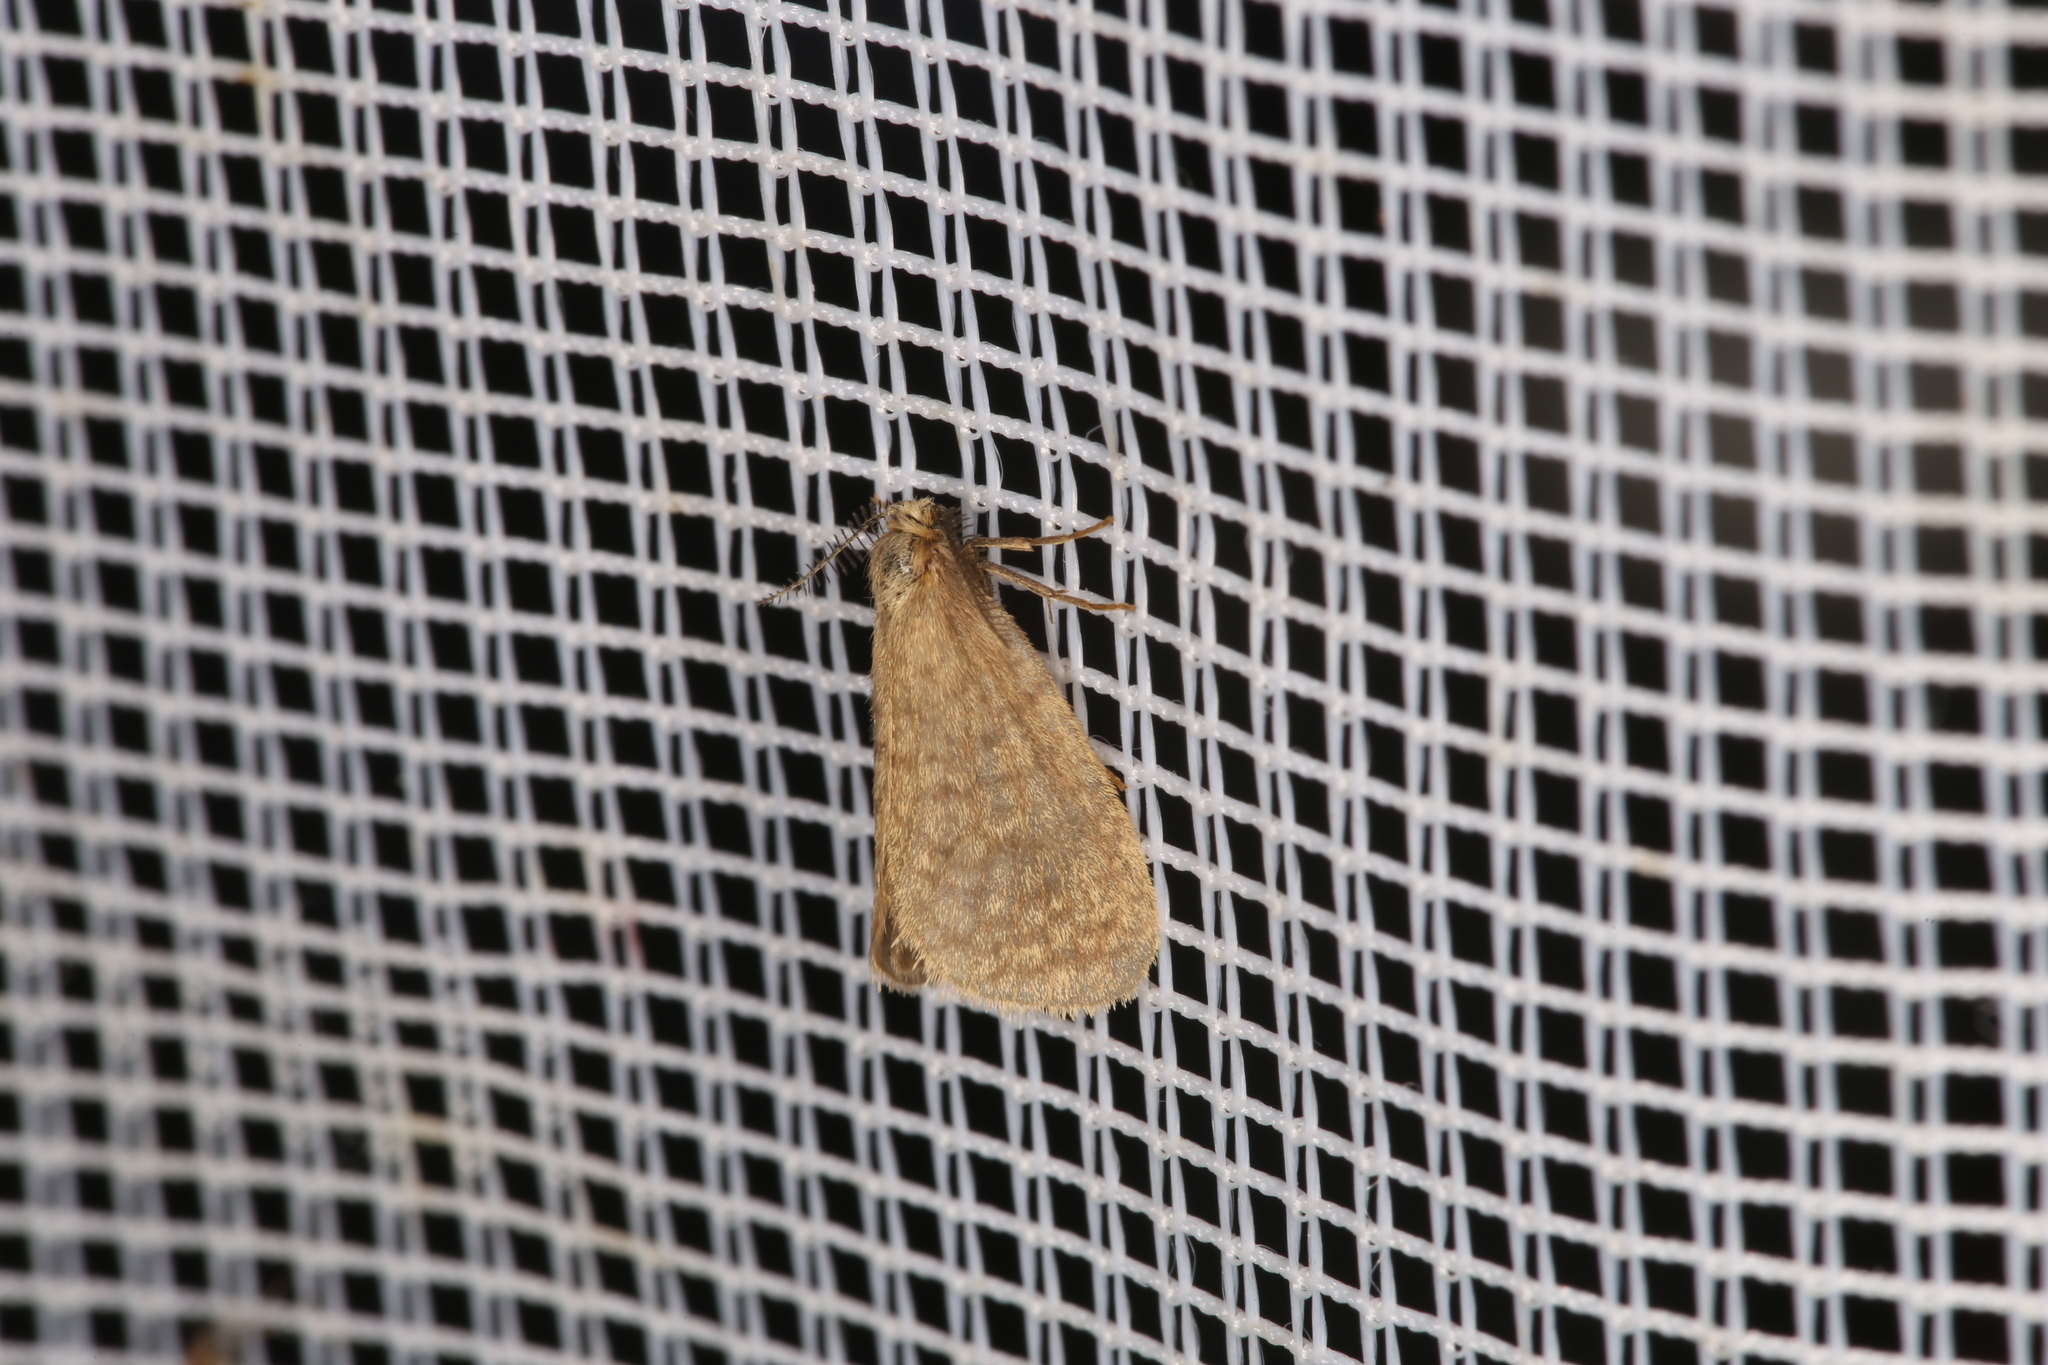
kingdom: Animalia
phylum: Arthropoda
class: Insecta
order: Lepidoptera
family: Psychidae
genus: Bijugis
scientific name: Bijugis bombycella
